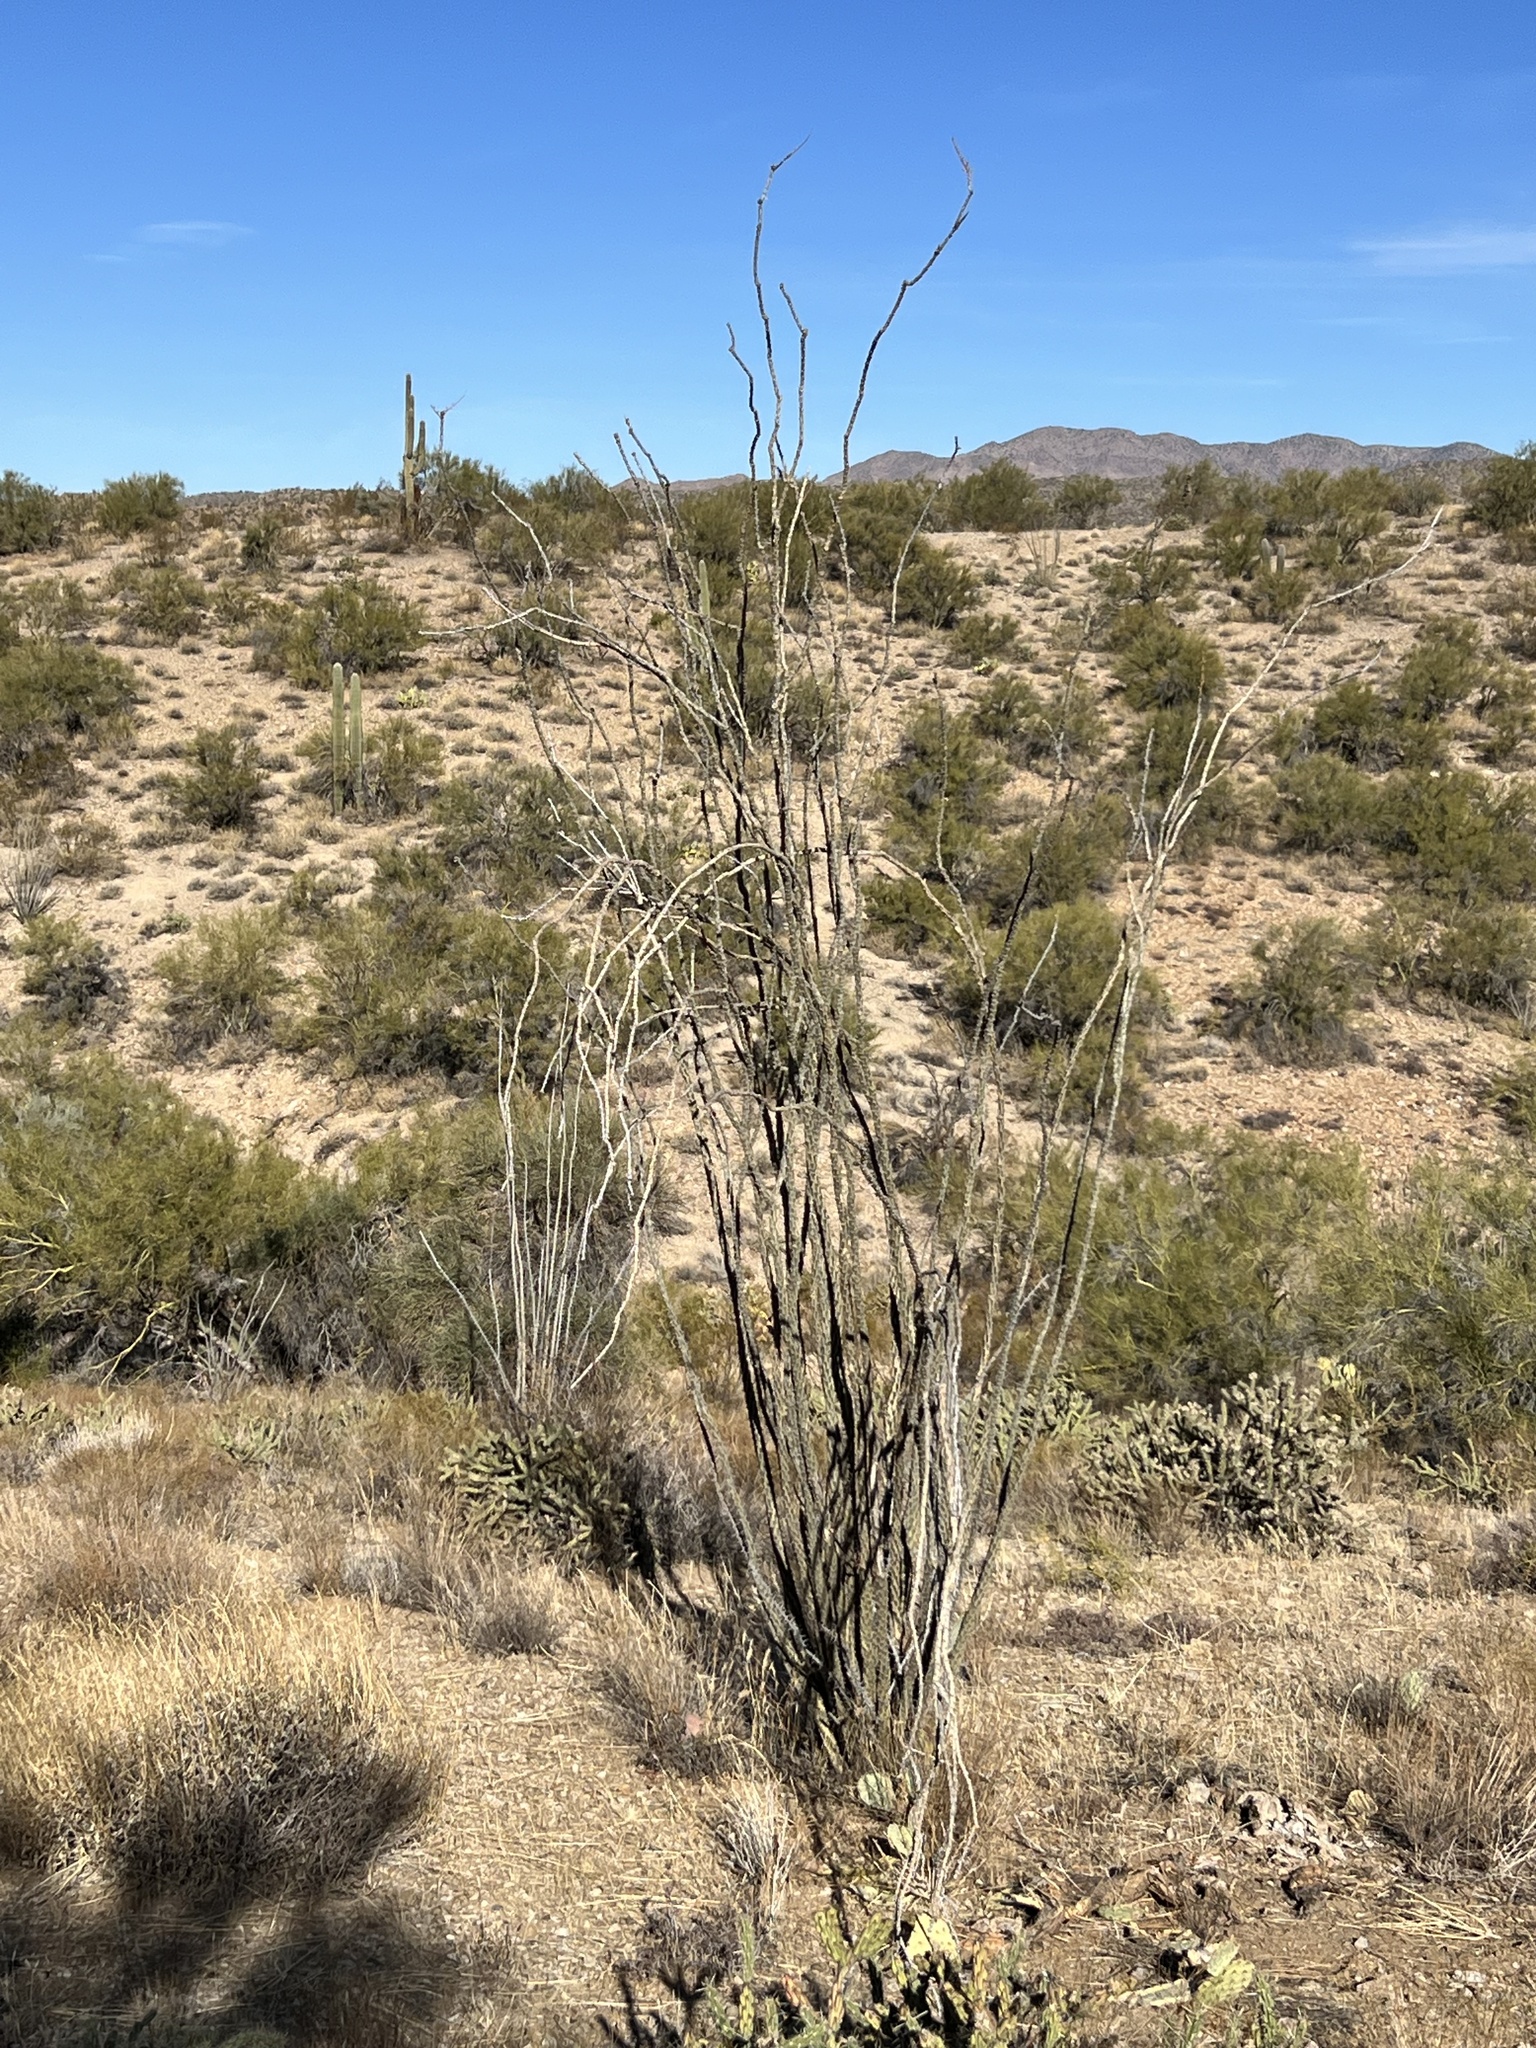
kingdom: Plantae
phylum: Tracheophyta
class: Magnoliopsida
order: Ericales
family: Fouquieriaceae
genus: Fouquieria
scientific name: Fouquieria splendens
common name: Vine-cactus
